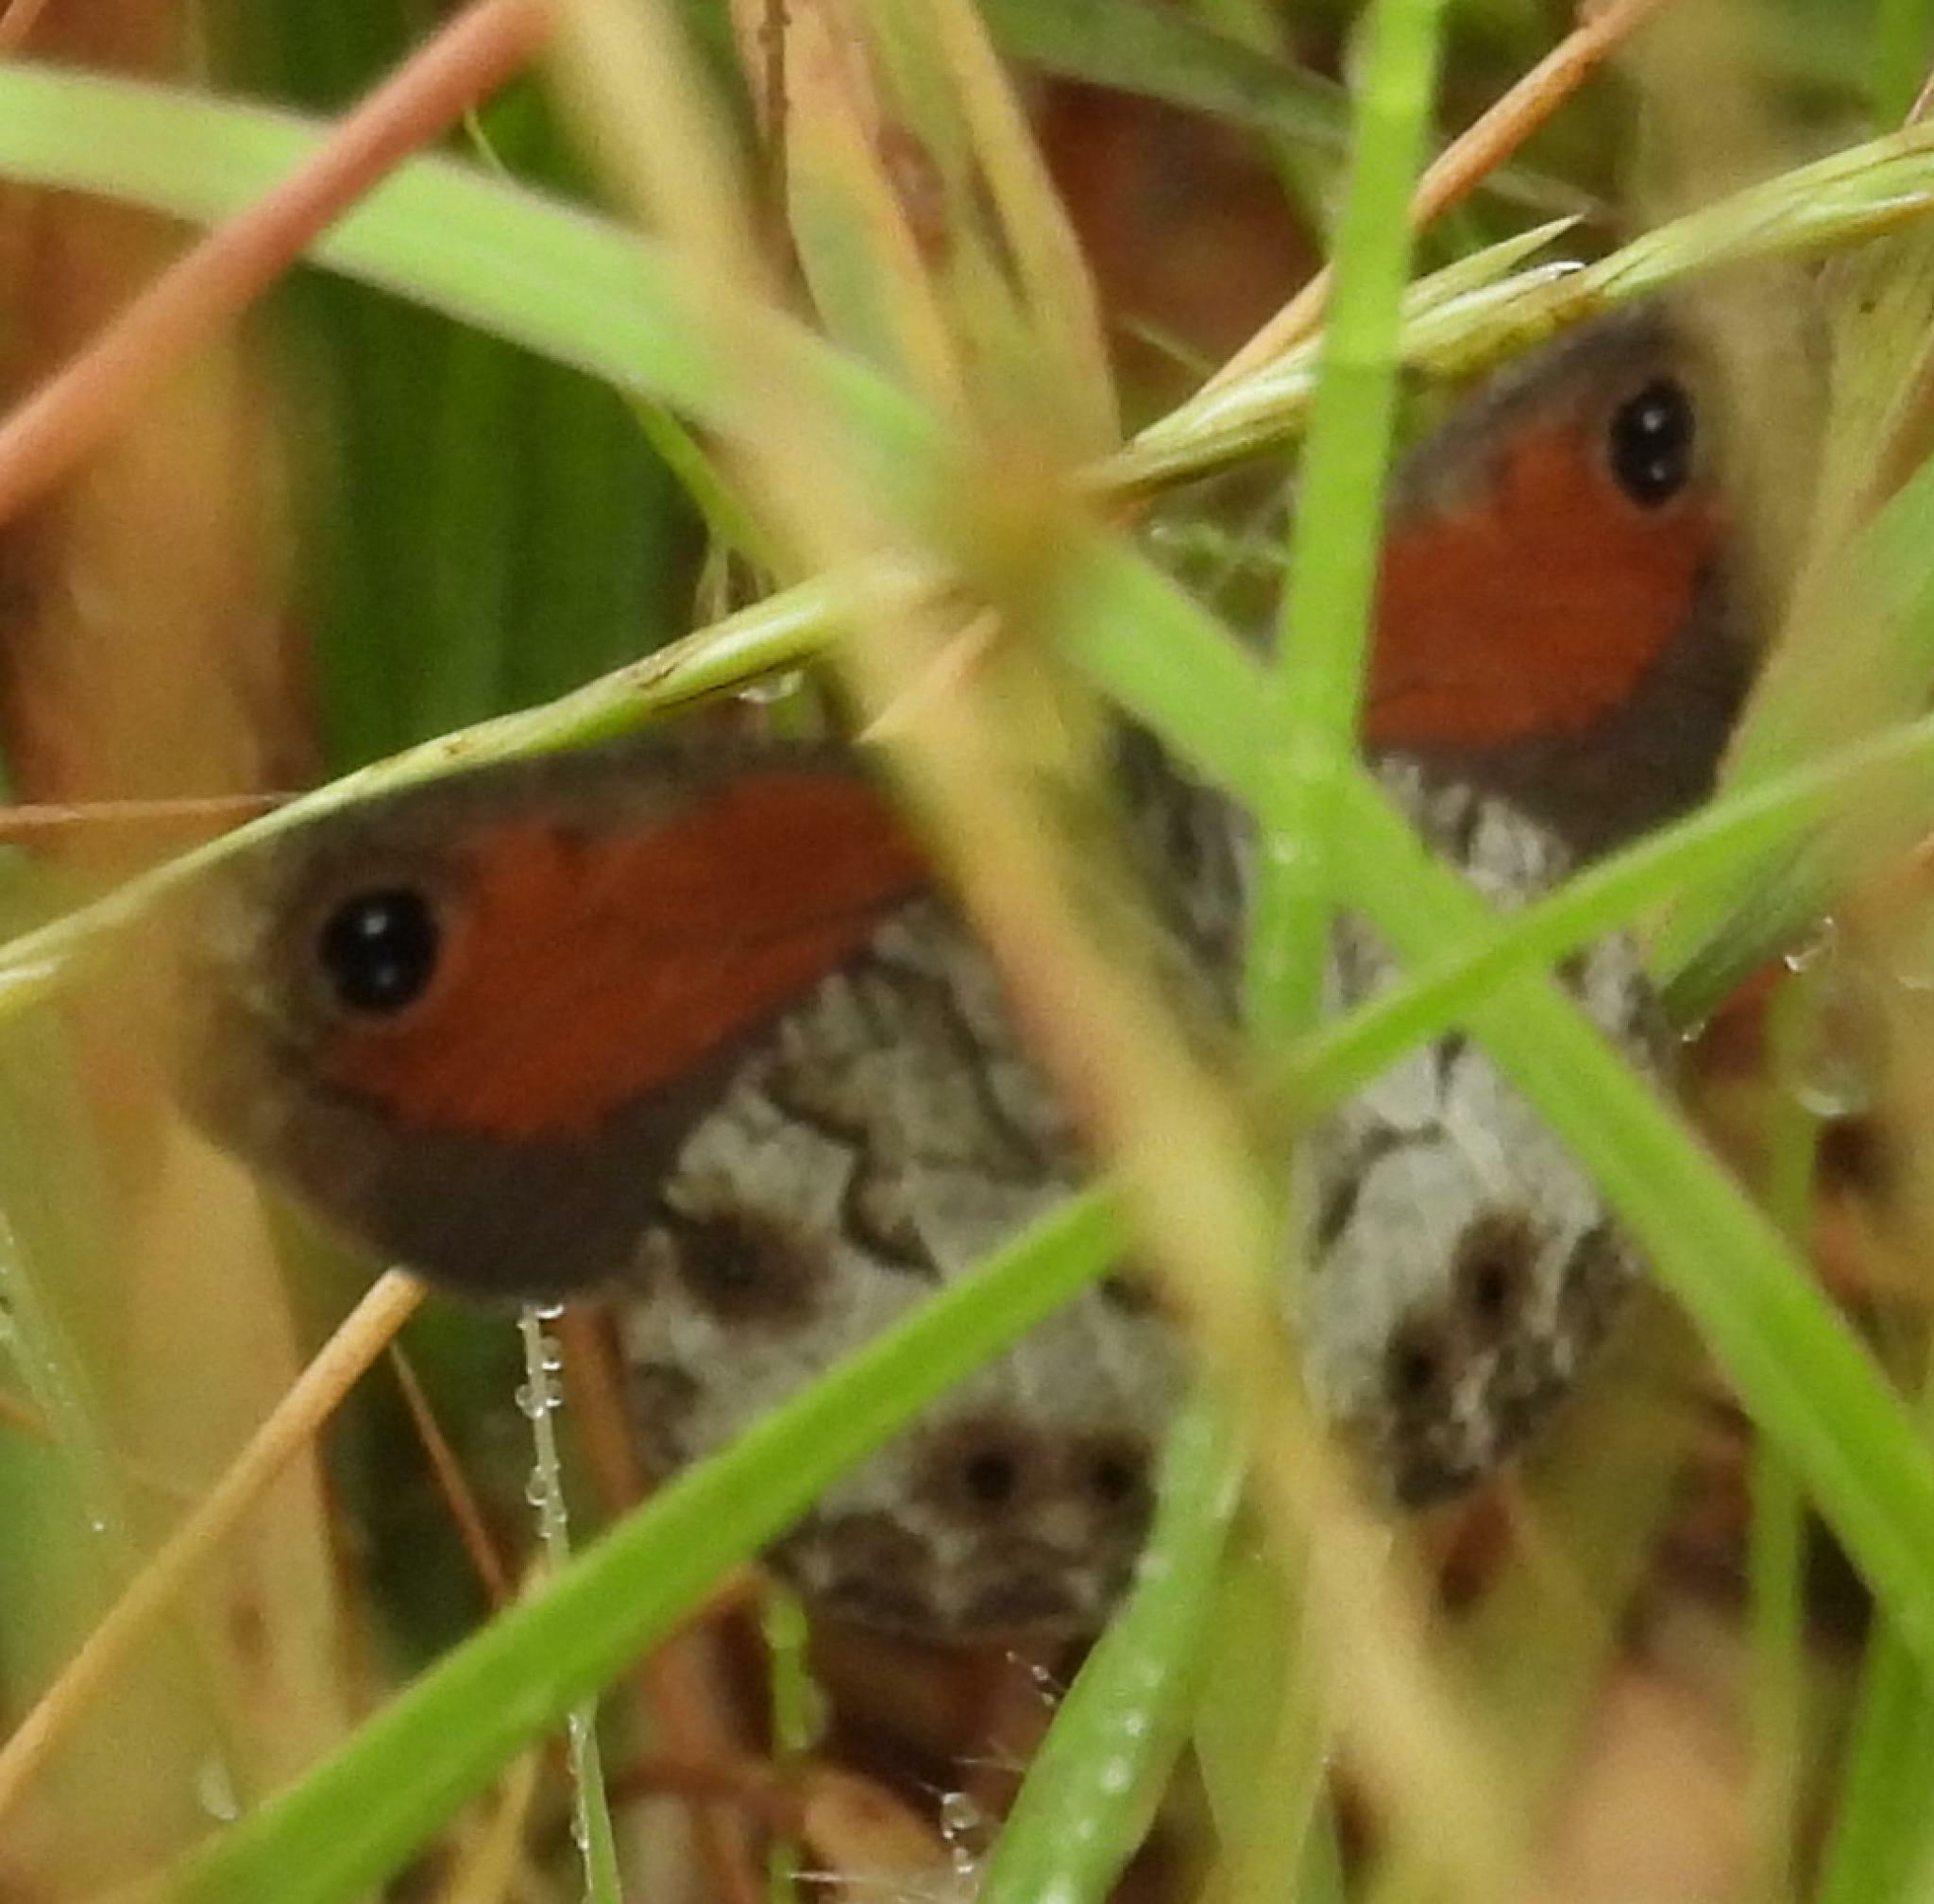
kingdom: Animalia
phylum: Arthropoda
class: Insecta
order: Lepidoptera
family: Nymphalidae
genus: Pseudonympha
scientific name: Pseudonympha magus
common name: Silver-bottom brown
